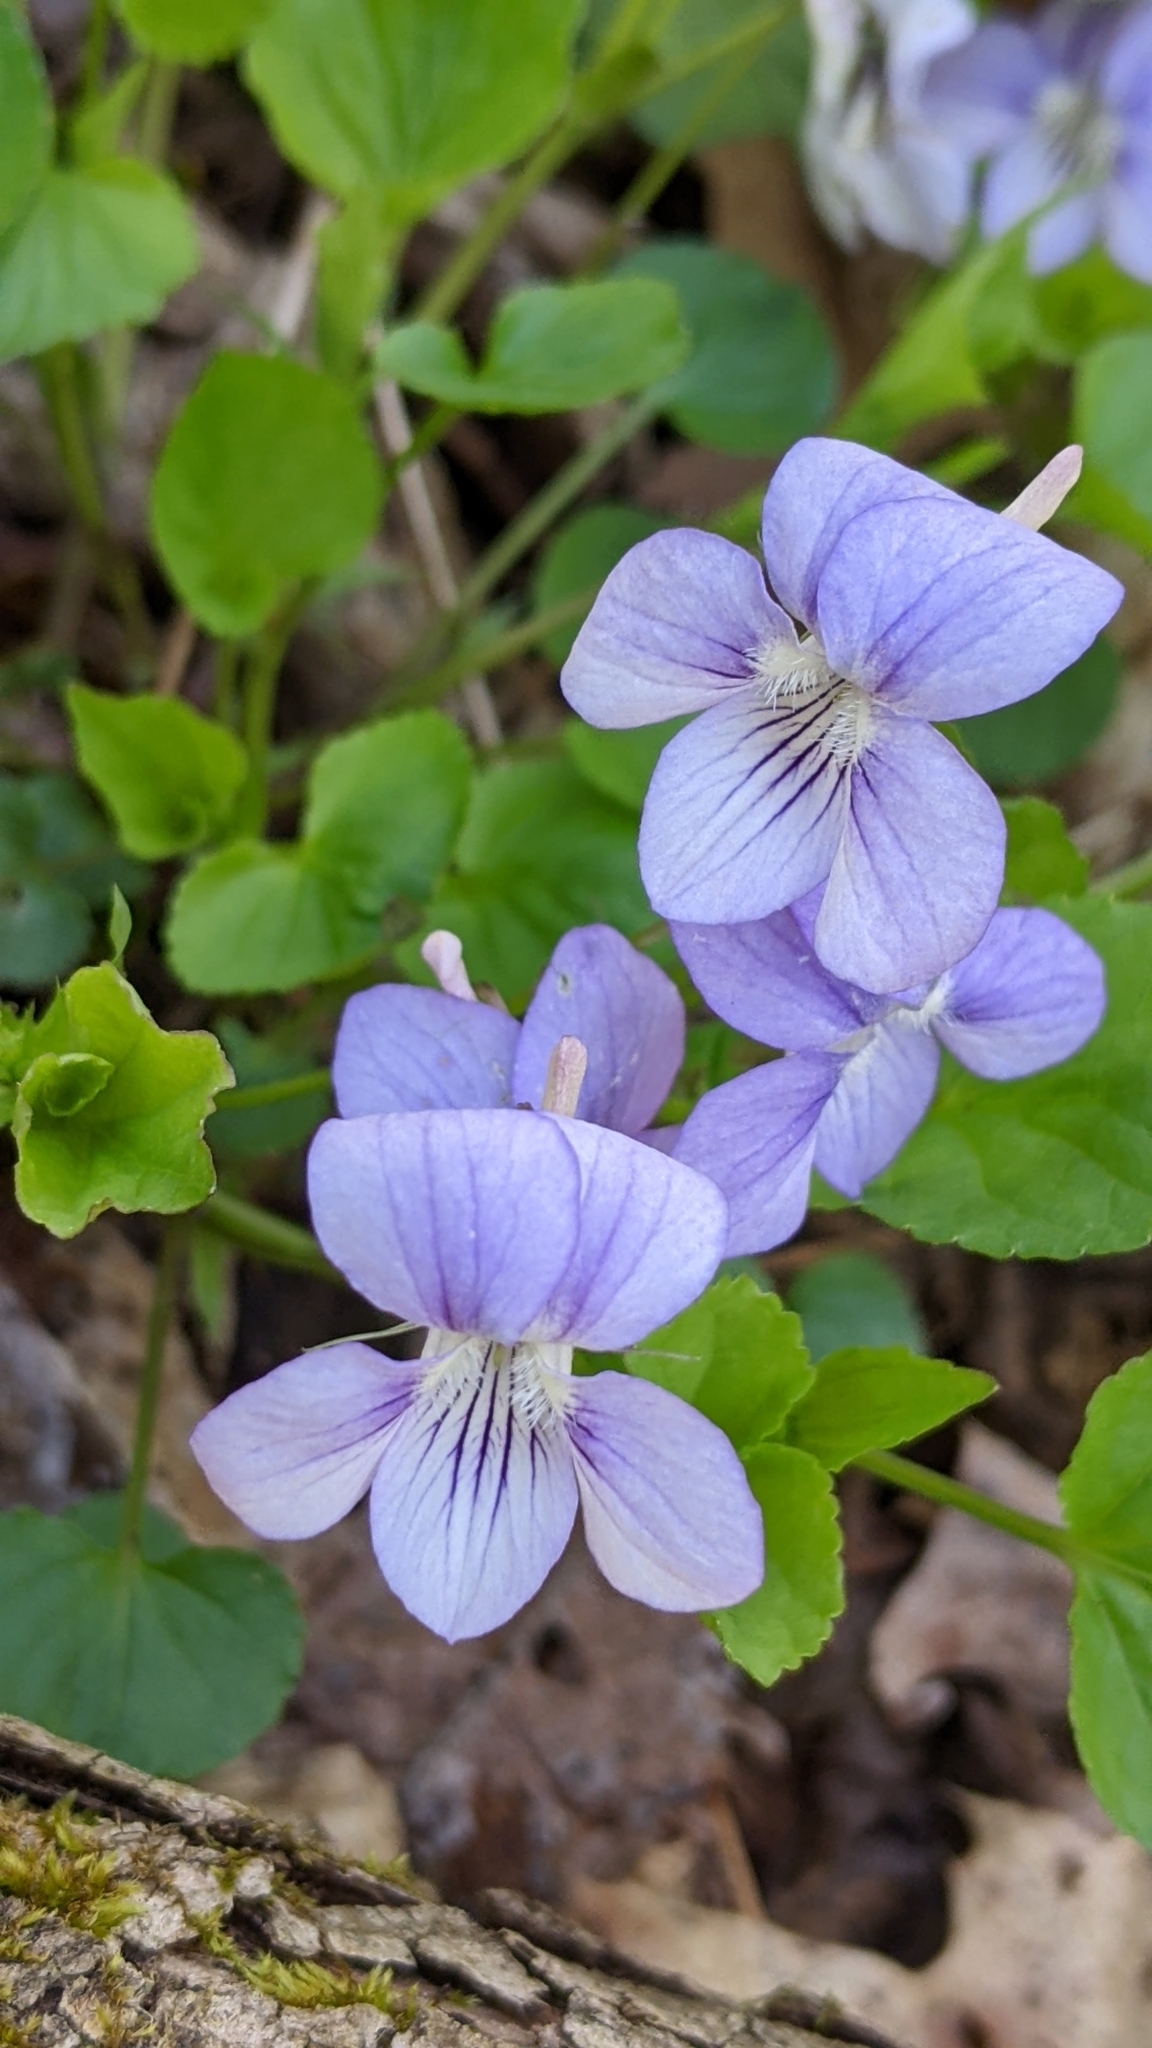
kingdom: Plantae
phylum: Tracheophyta
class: Magnoliopsida
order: Malpighiales
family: Violaceae
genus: Viola
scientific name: Viola rostrata
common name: Long-spur violet
